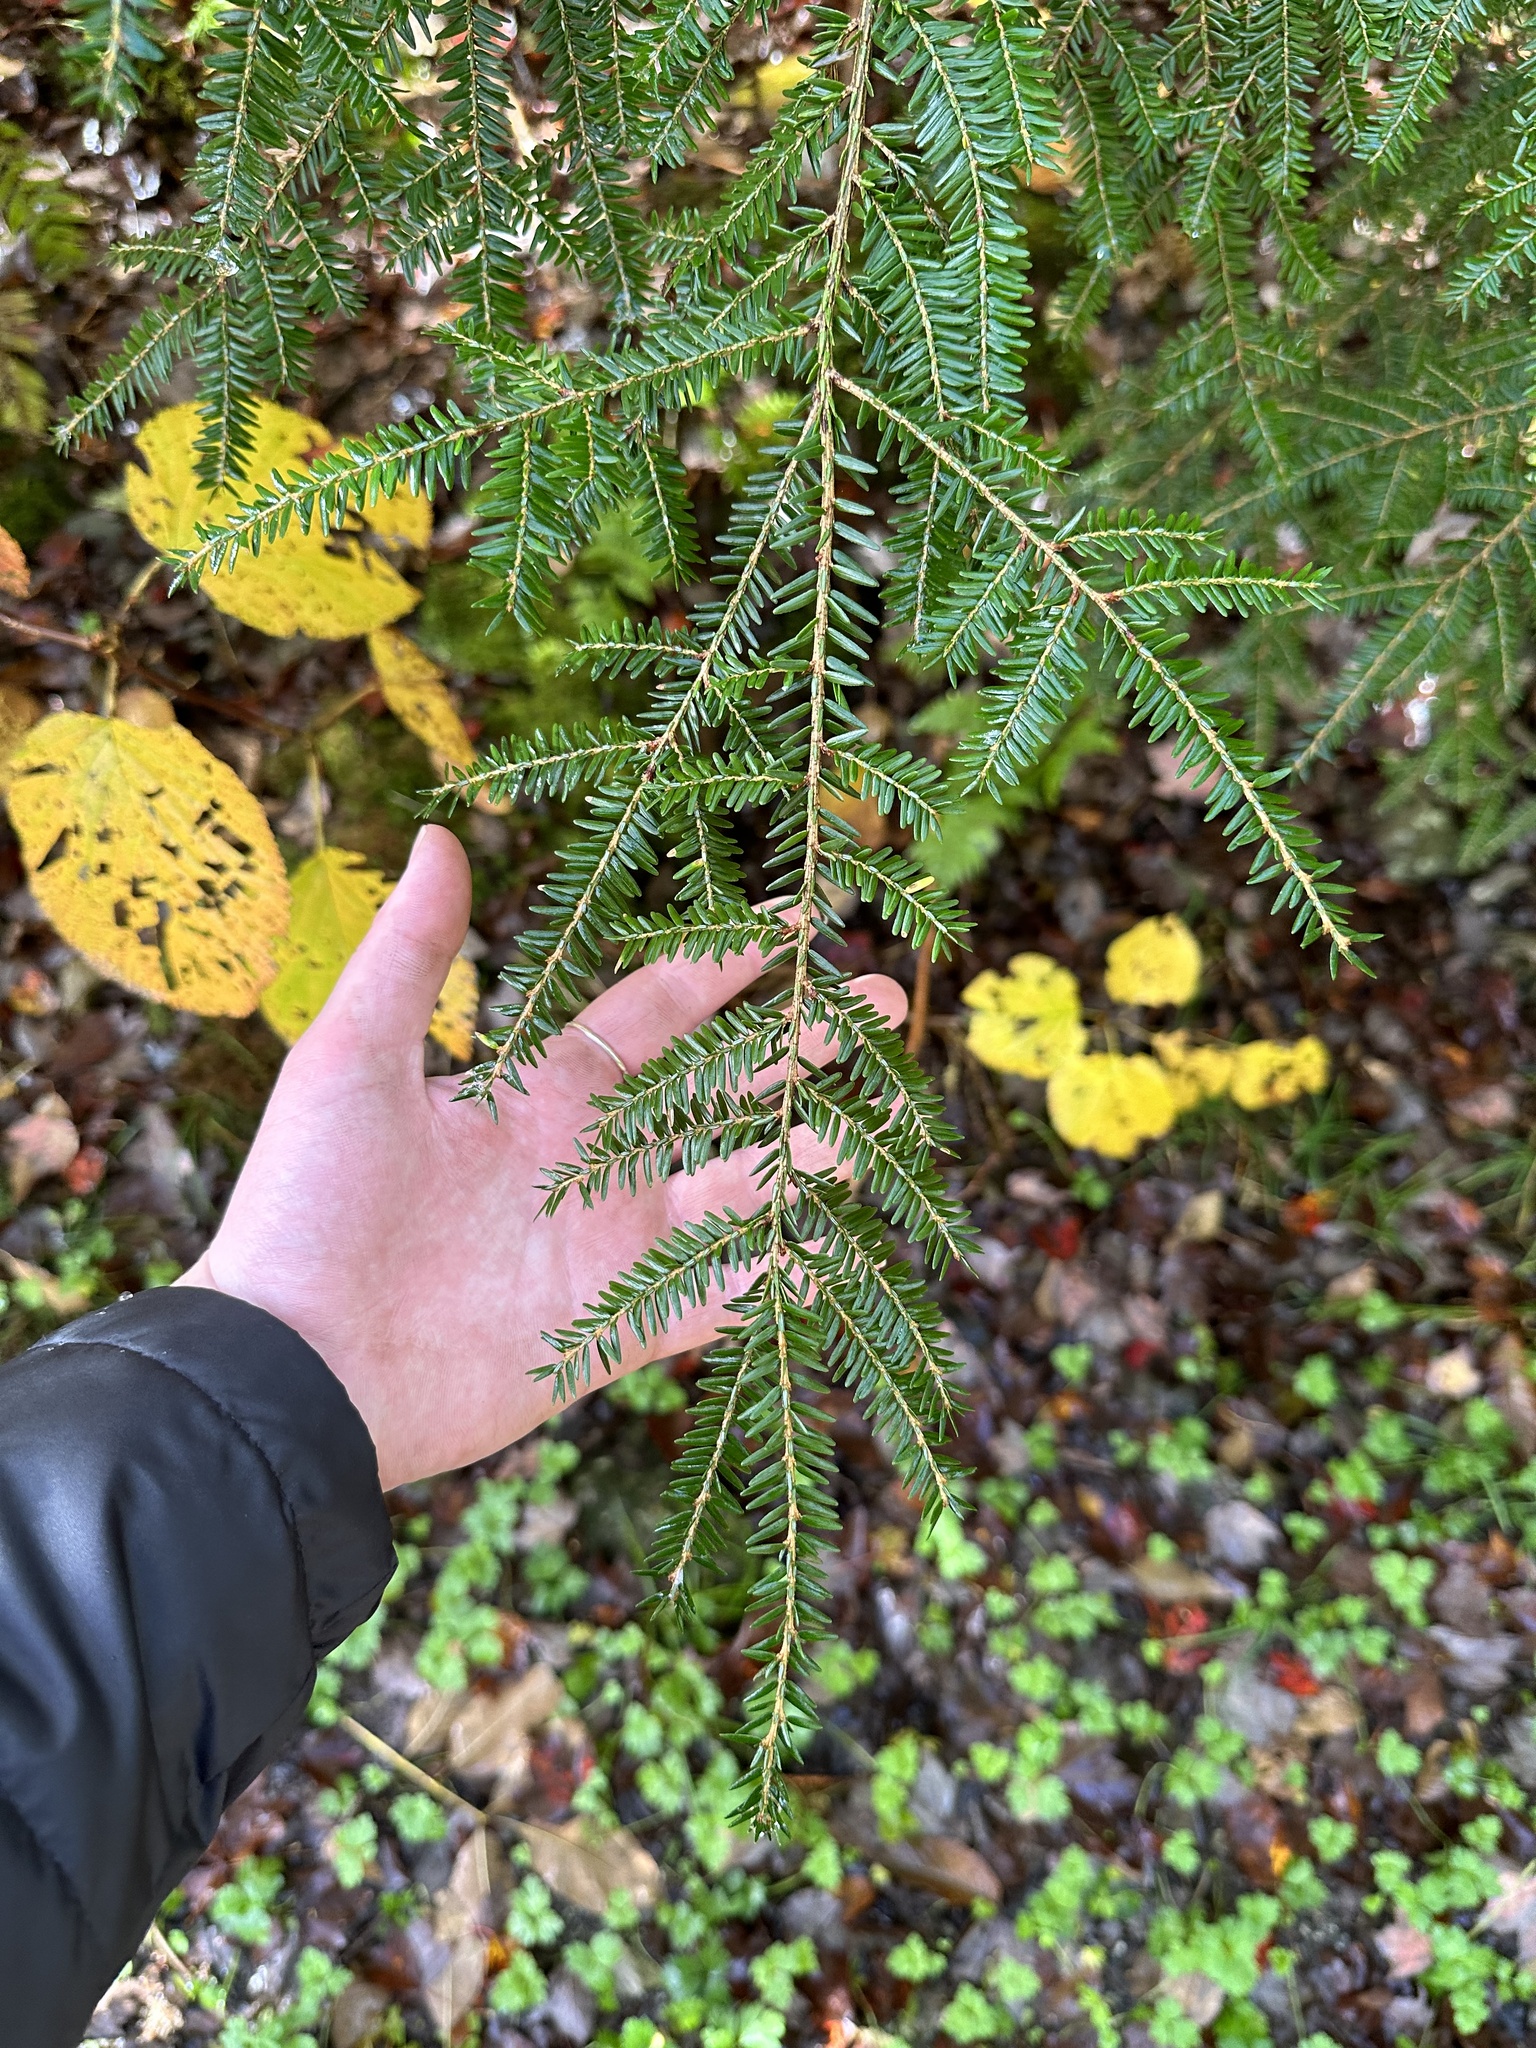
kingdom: Plantae
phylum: Tracheophyta
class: Pinopsida
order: Pinales
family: Pinaceae
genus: Tsuga
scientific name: Tsuga canadensis
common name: Eastern hemlock
